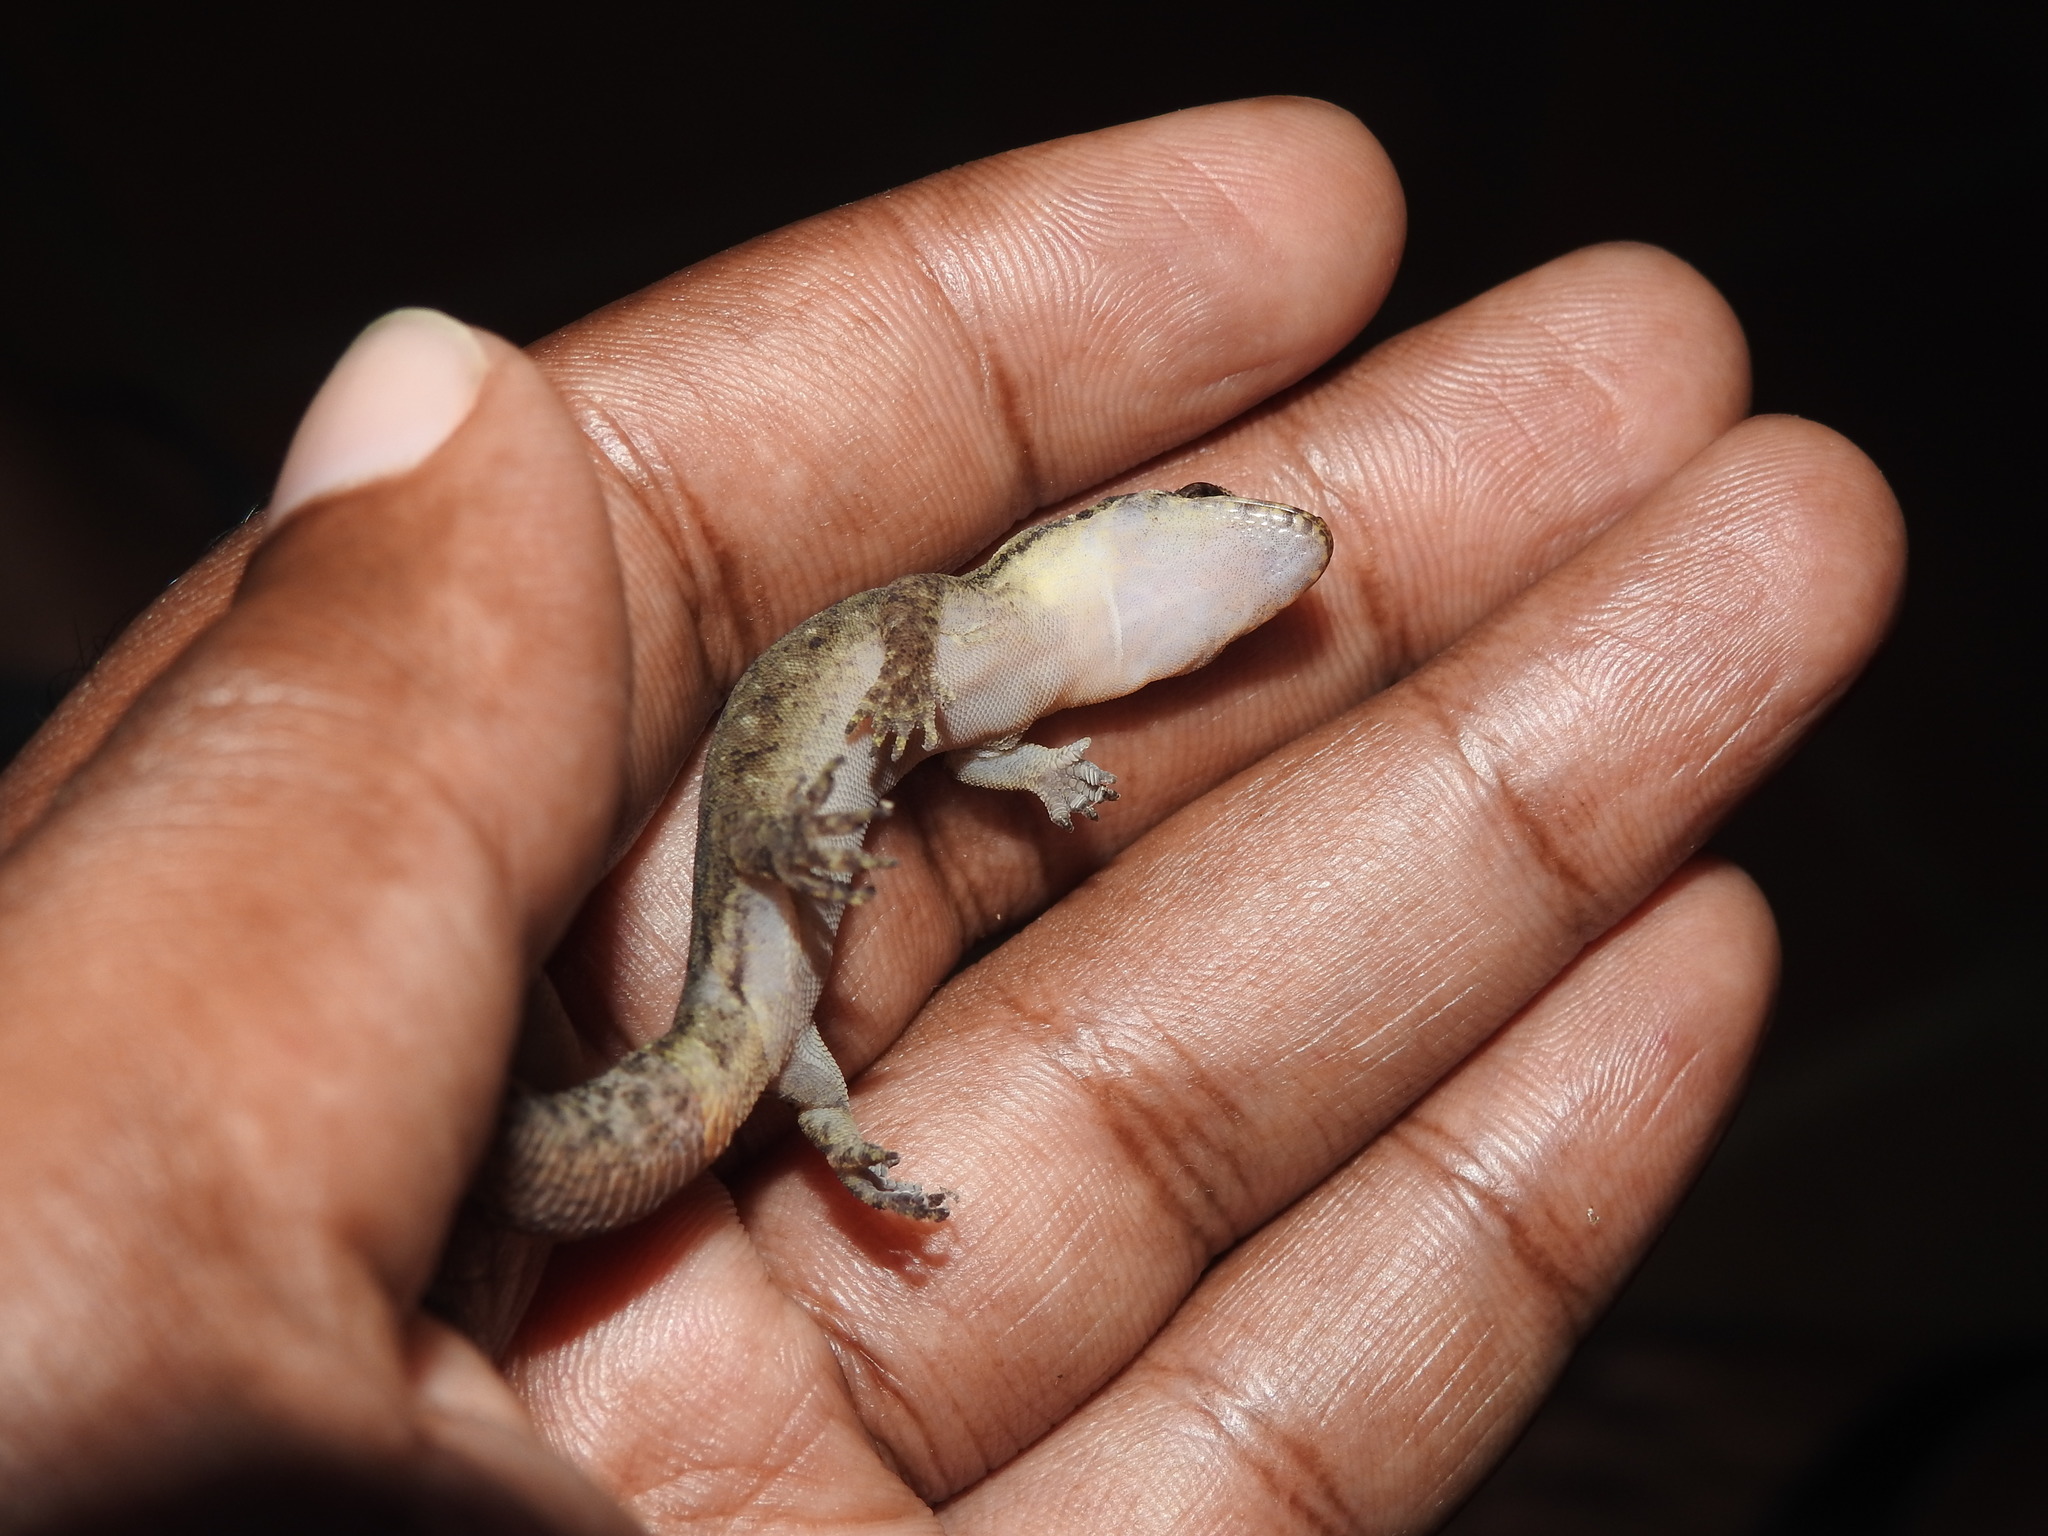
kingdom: Animalia
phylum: Chordata
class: Squamata
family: Gekkonidae
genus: Dravidogecko
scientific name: Dravidogecko douglasadamsi
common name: Adams’ dravidogecko
